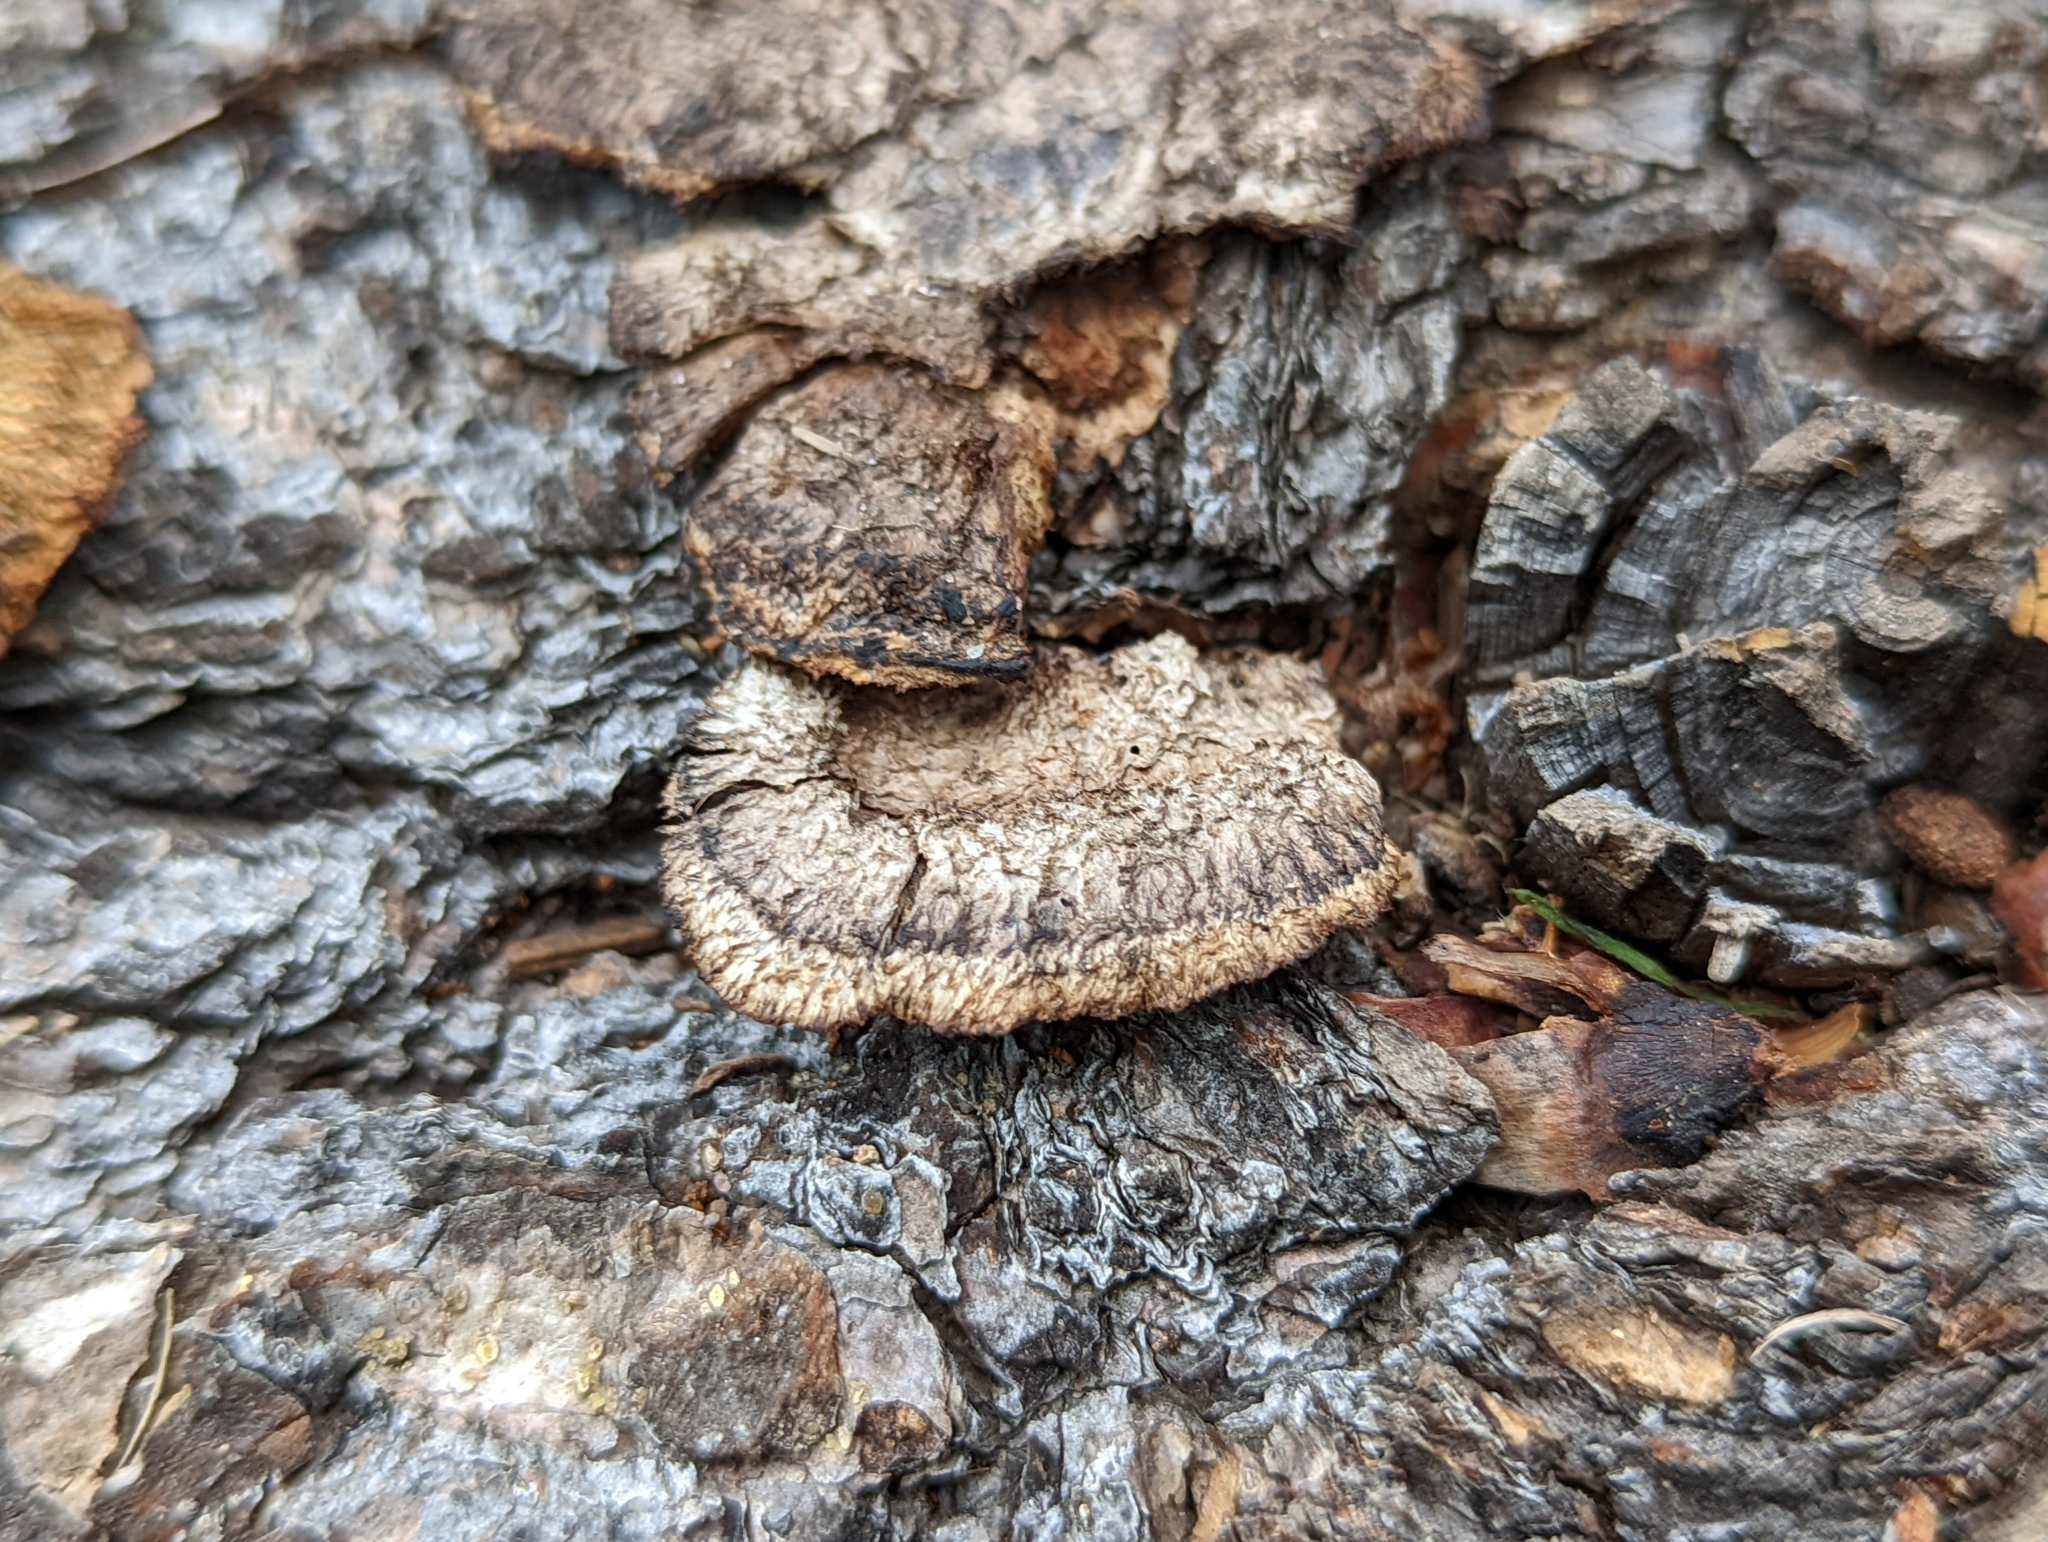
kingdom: Fungi
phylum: Basidiomycota
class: Agaricomycetes
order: Gloeophyllales
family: Gloeophyllaceae
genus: Gloeophyllum
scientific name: Gloeophyllum sepiarium
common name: Conifer mazegill
